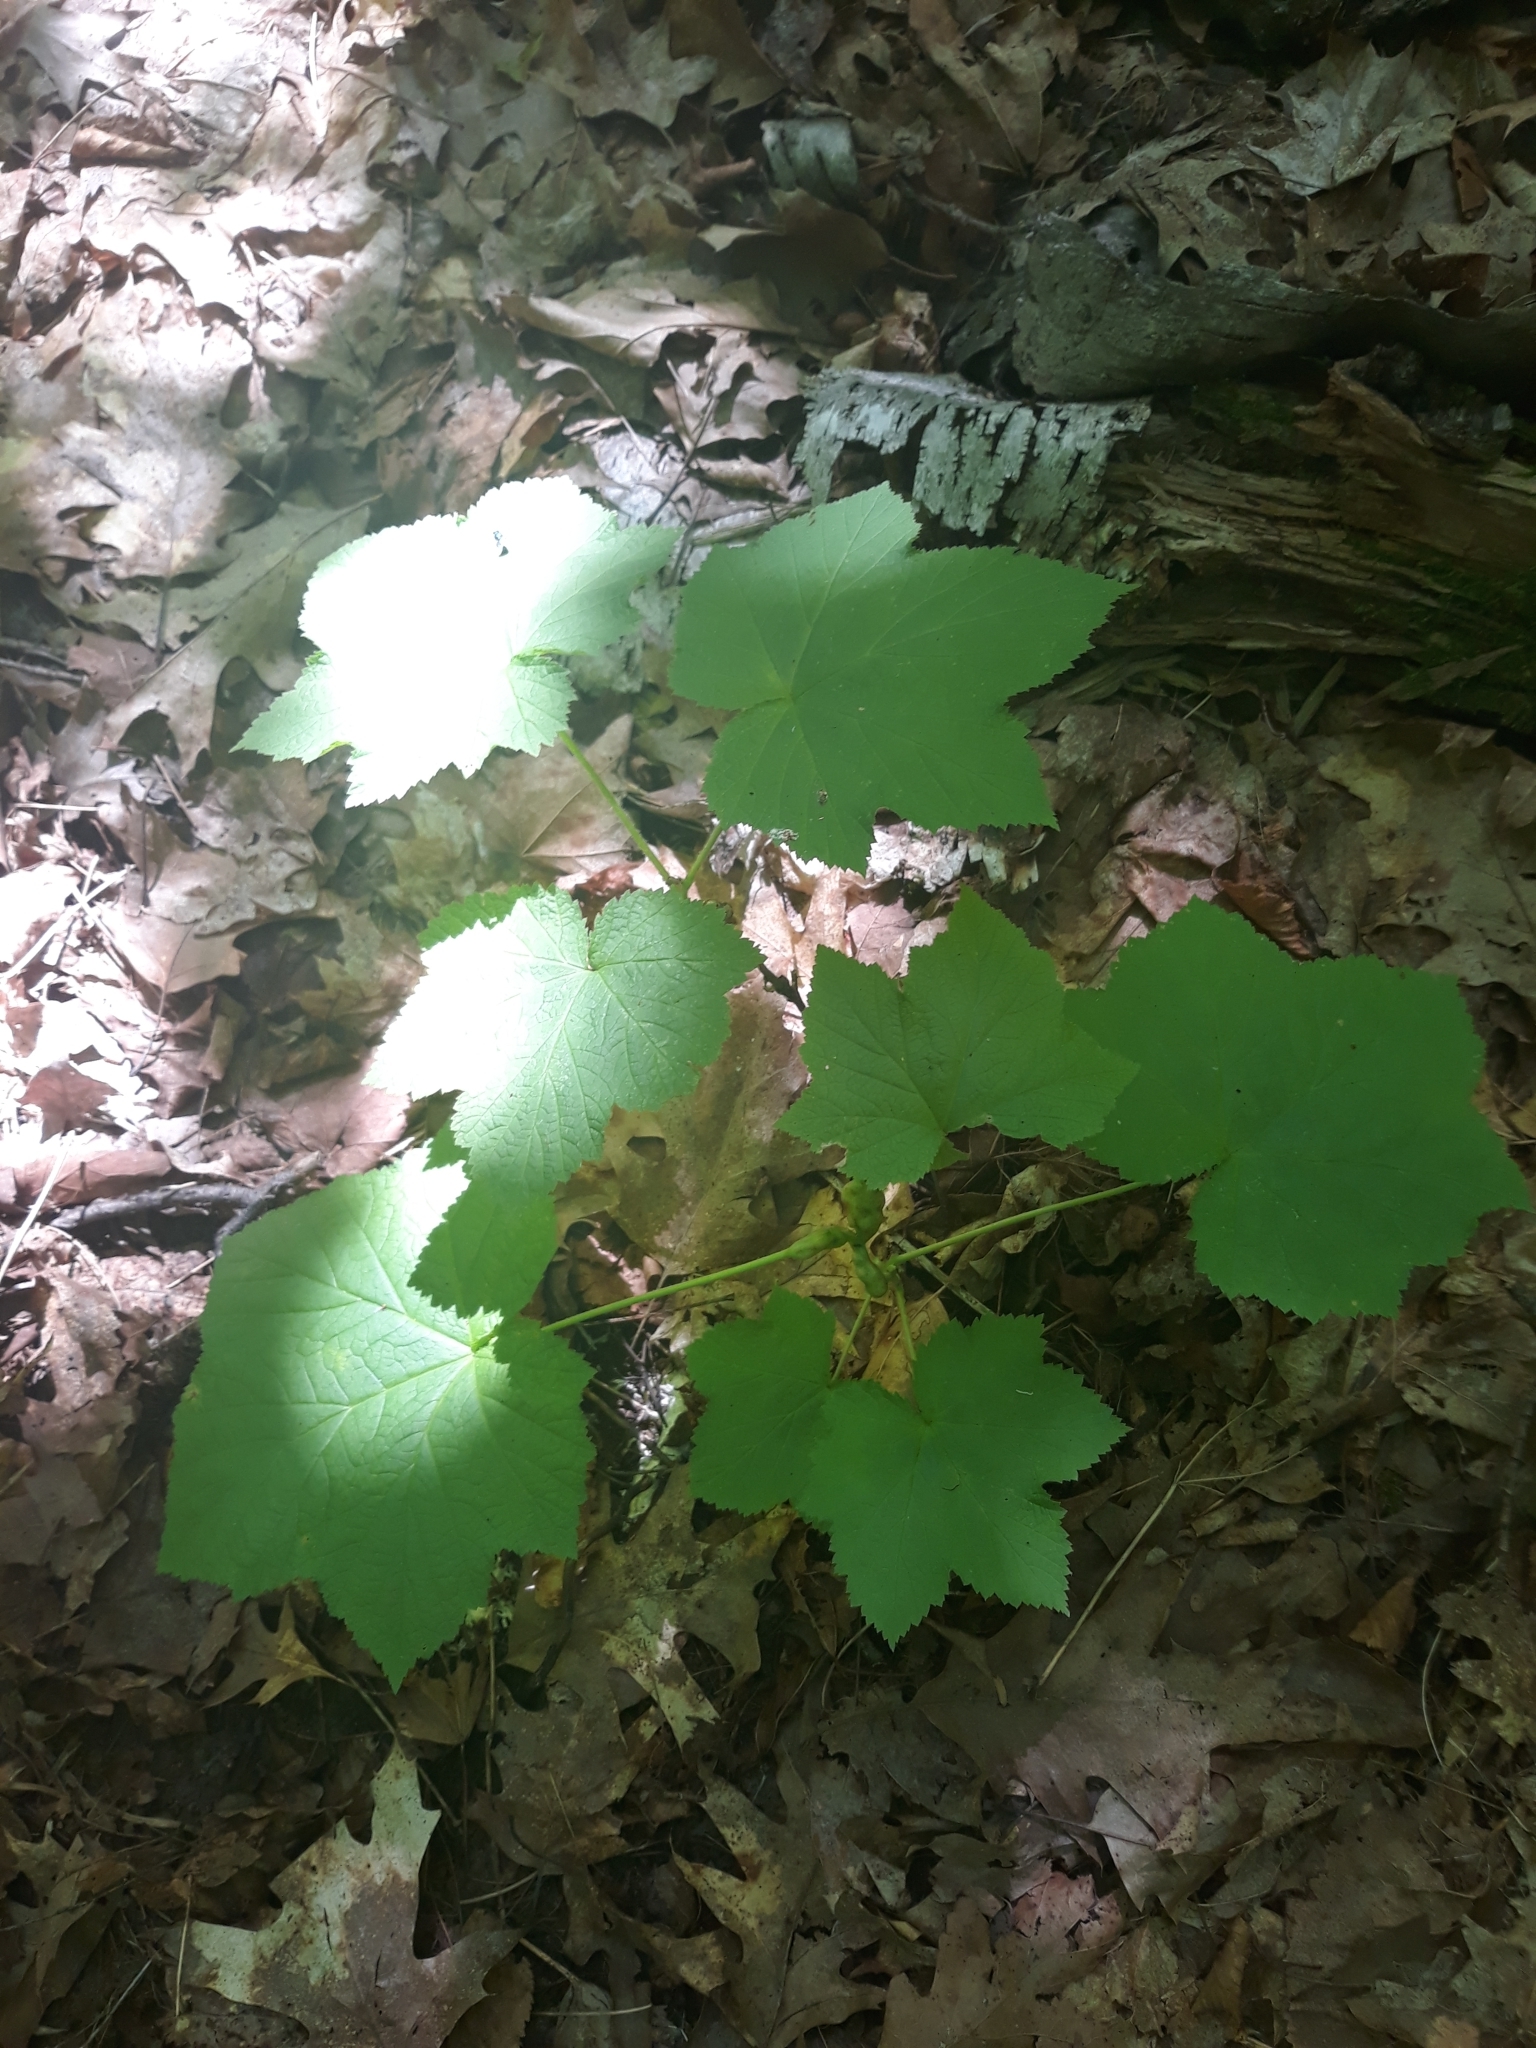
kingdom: Plantae
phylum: Tracheophyta
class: Magnoliopsida
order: Rosales
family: Rosaceae
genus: Rubus
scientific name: Rubus parviflorus
